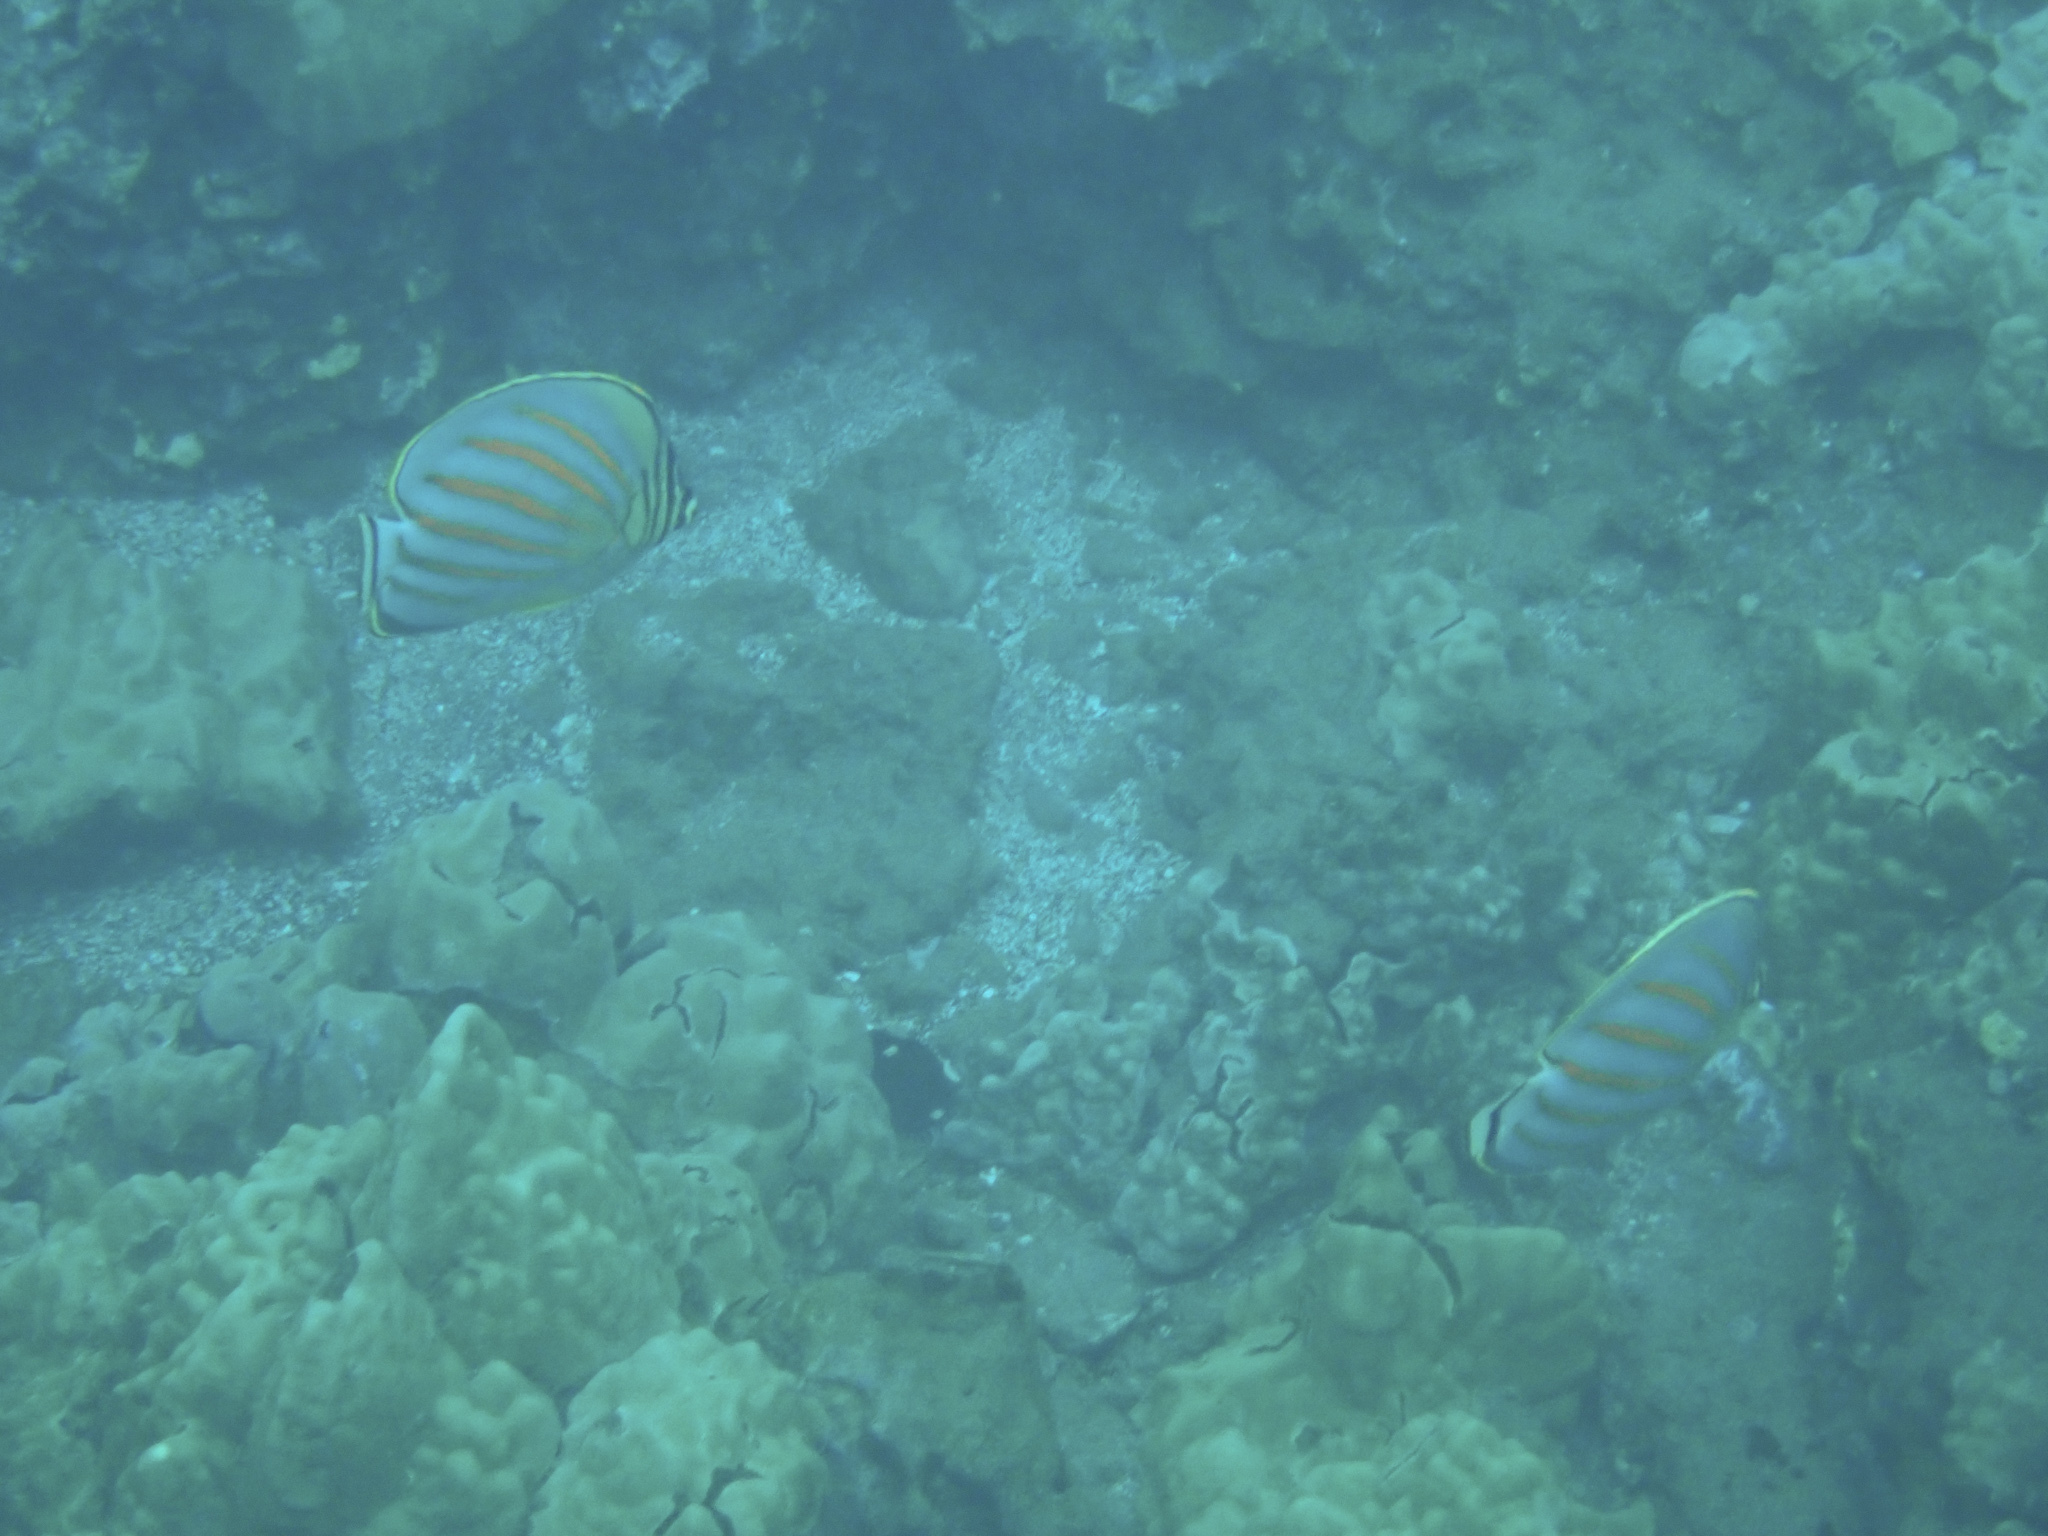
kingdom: Animalia
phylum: Chordata
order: Perciformes
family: Chaetodontidae
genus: Chaetodon
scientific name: Chaetodon ornatissimus
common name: Ornate butterflyfish
